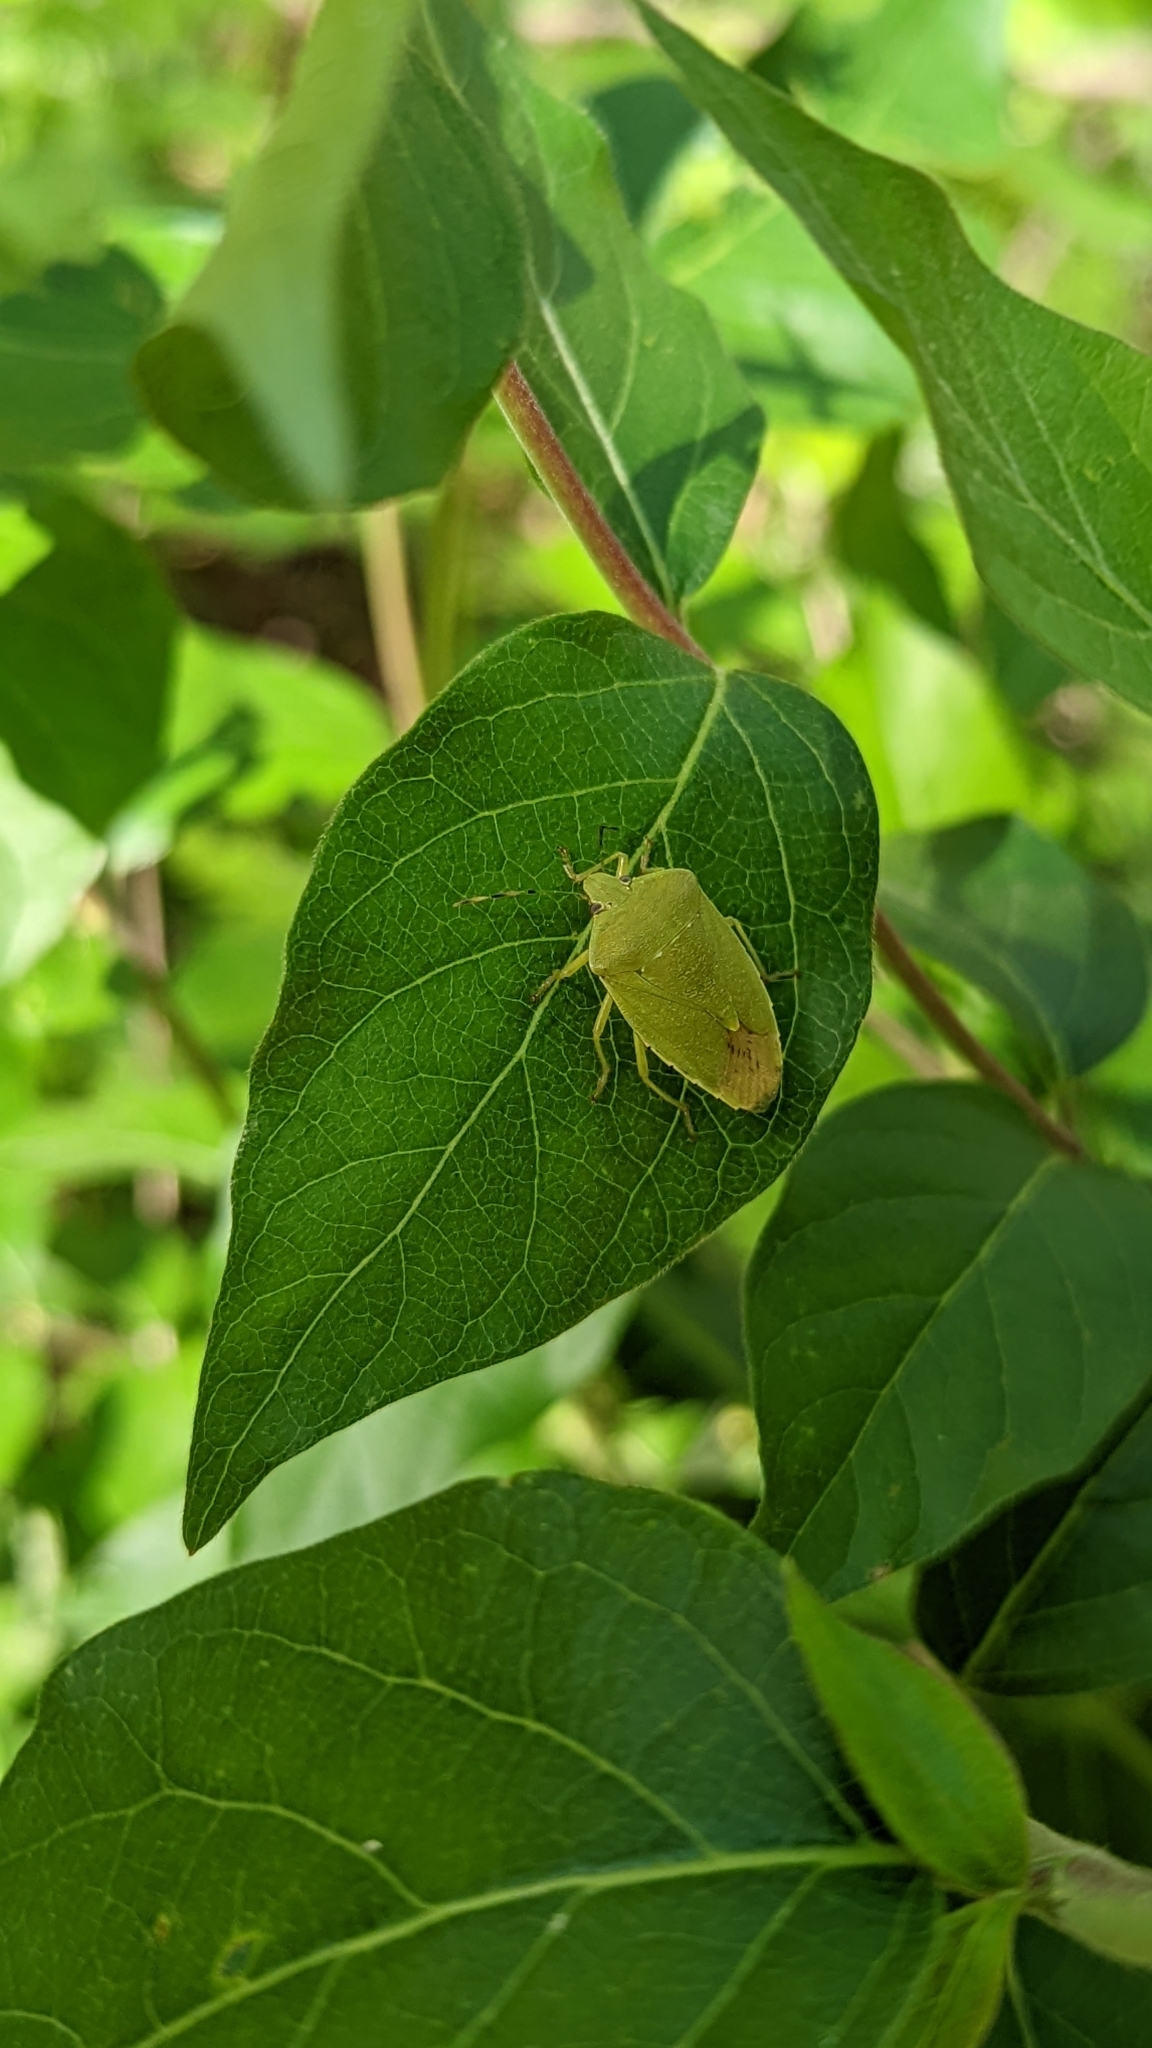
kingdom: Animalia
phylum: Arthropoda
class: Insecta
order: Hemiptera
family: Pentatomidae
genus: Chinavia
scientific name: Chinavia hilaris
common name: Green stink bug
